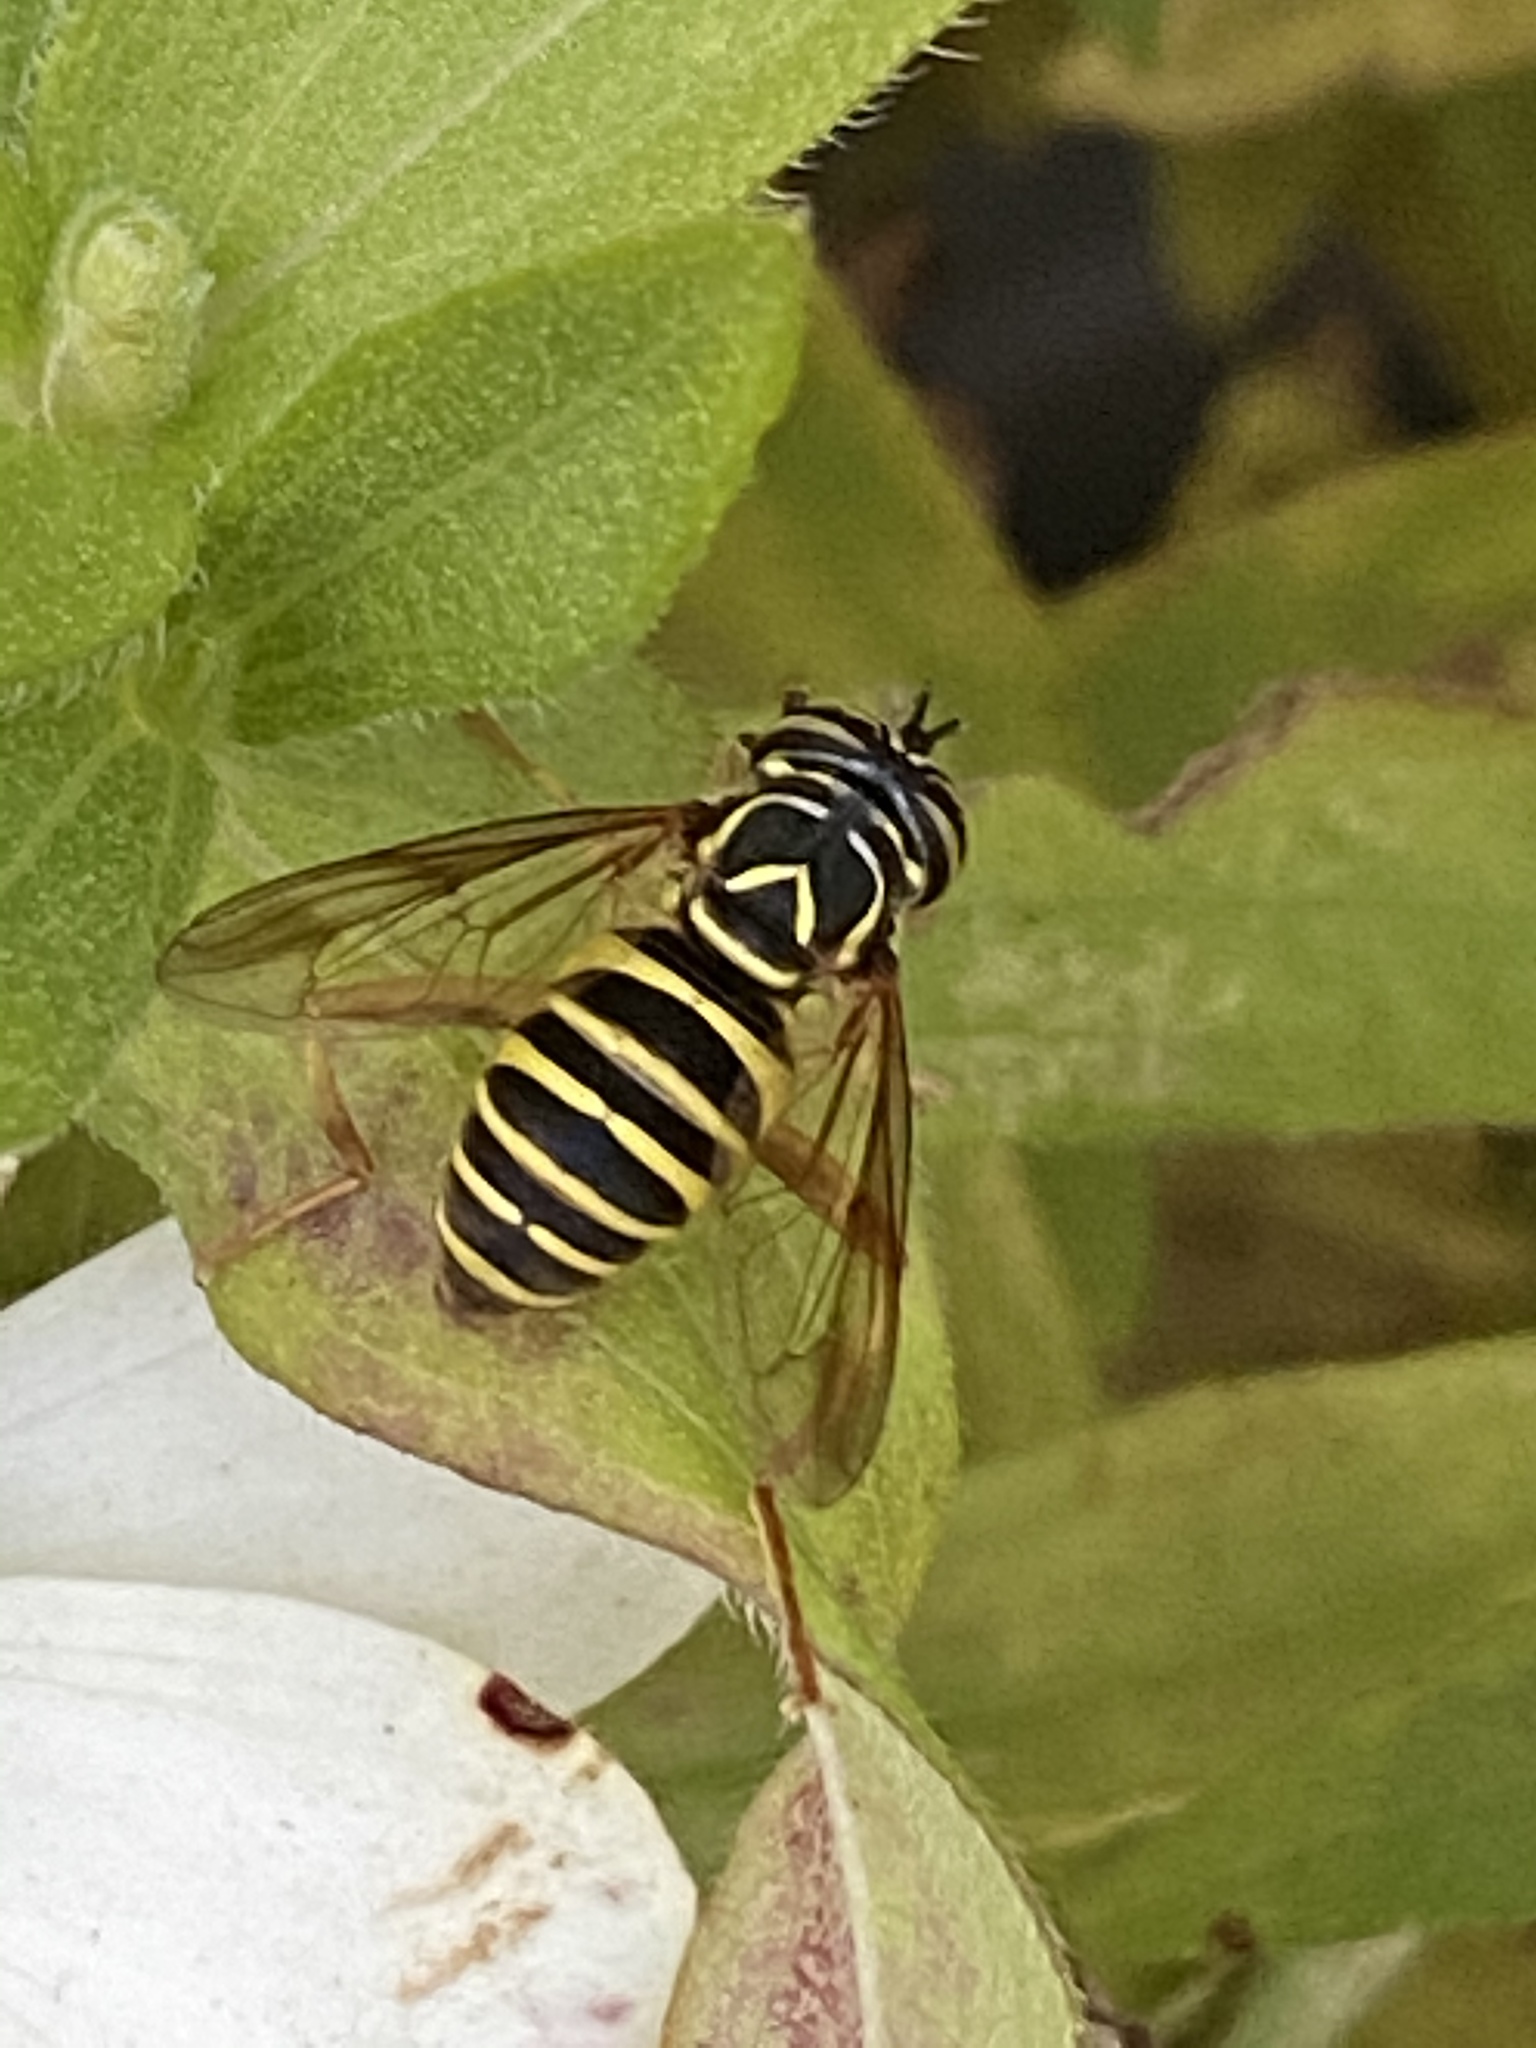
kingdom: Animalia
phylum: Arthropoda
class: Insecta
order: Diptera
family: Syrphidae
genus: Spilomyia
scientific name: Spilomyia longicornis
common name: Eastern hornet fly
